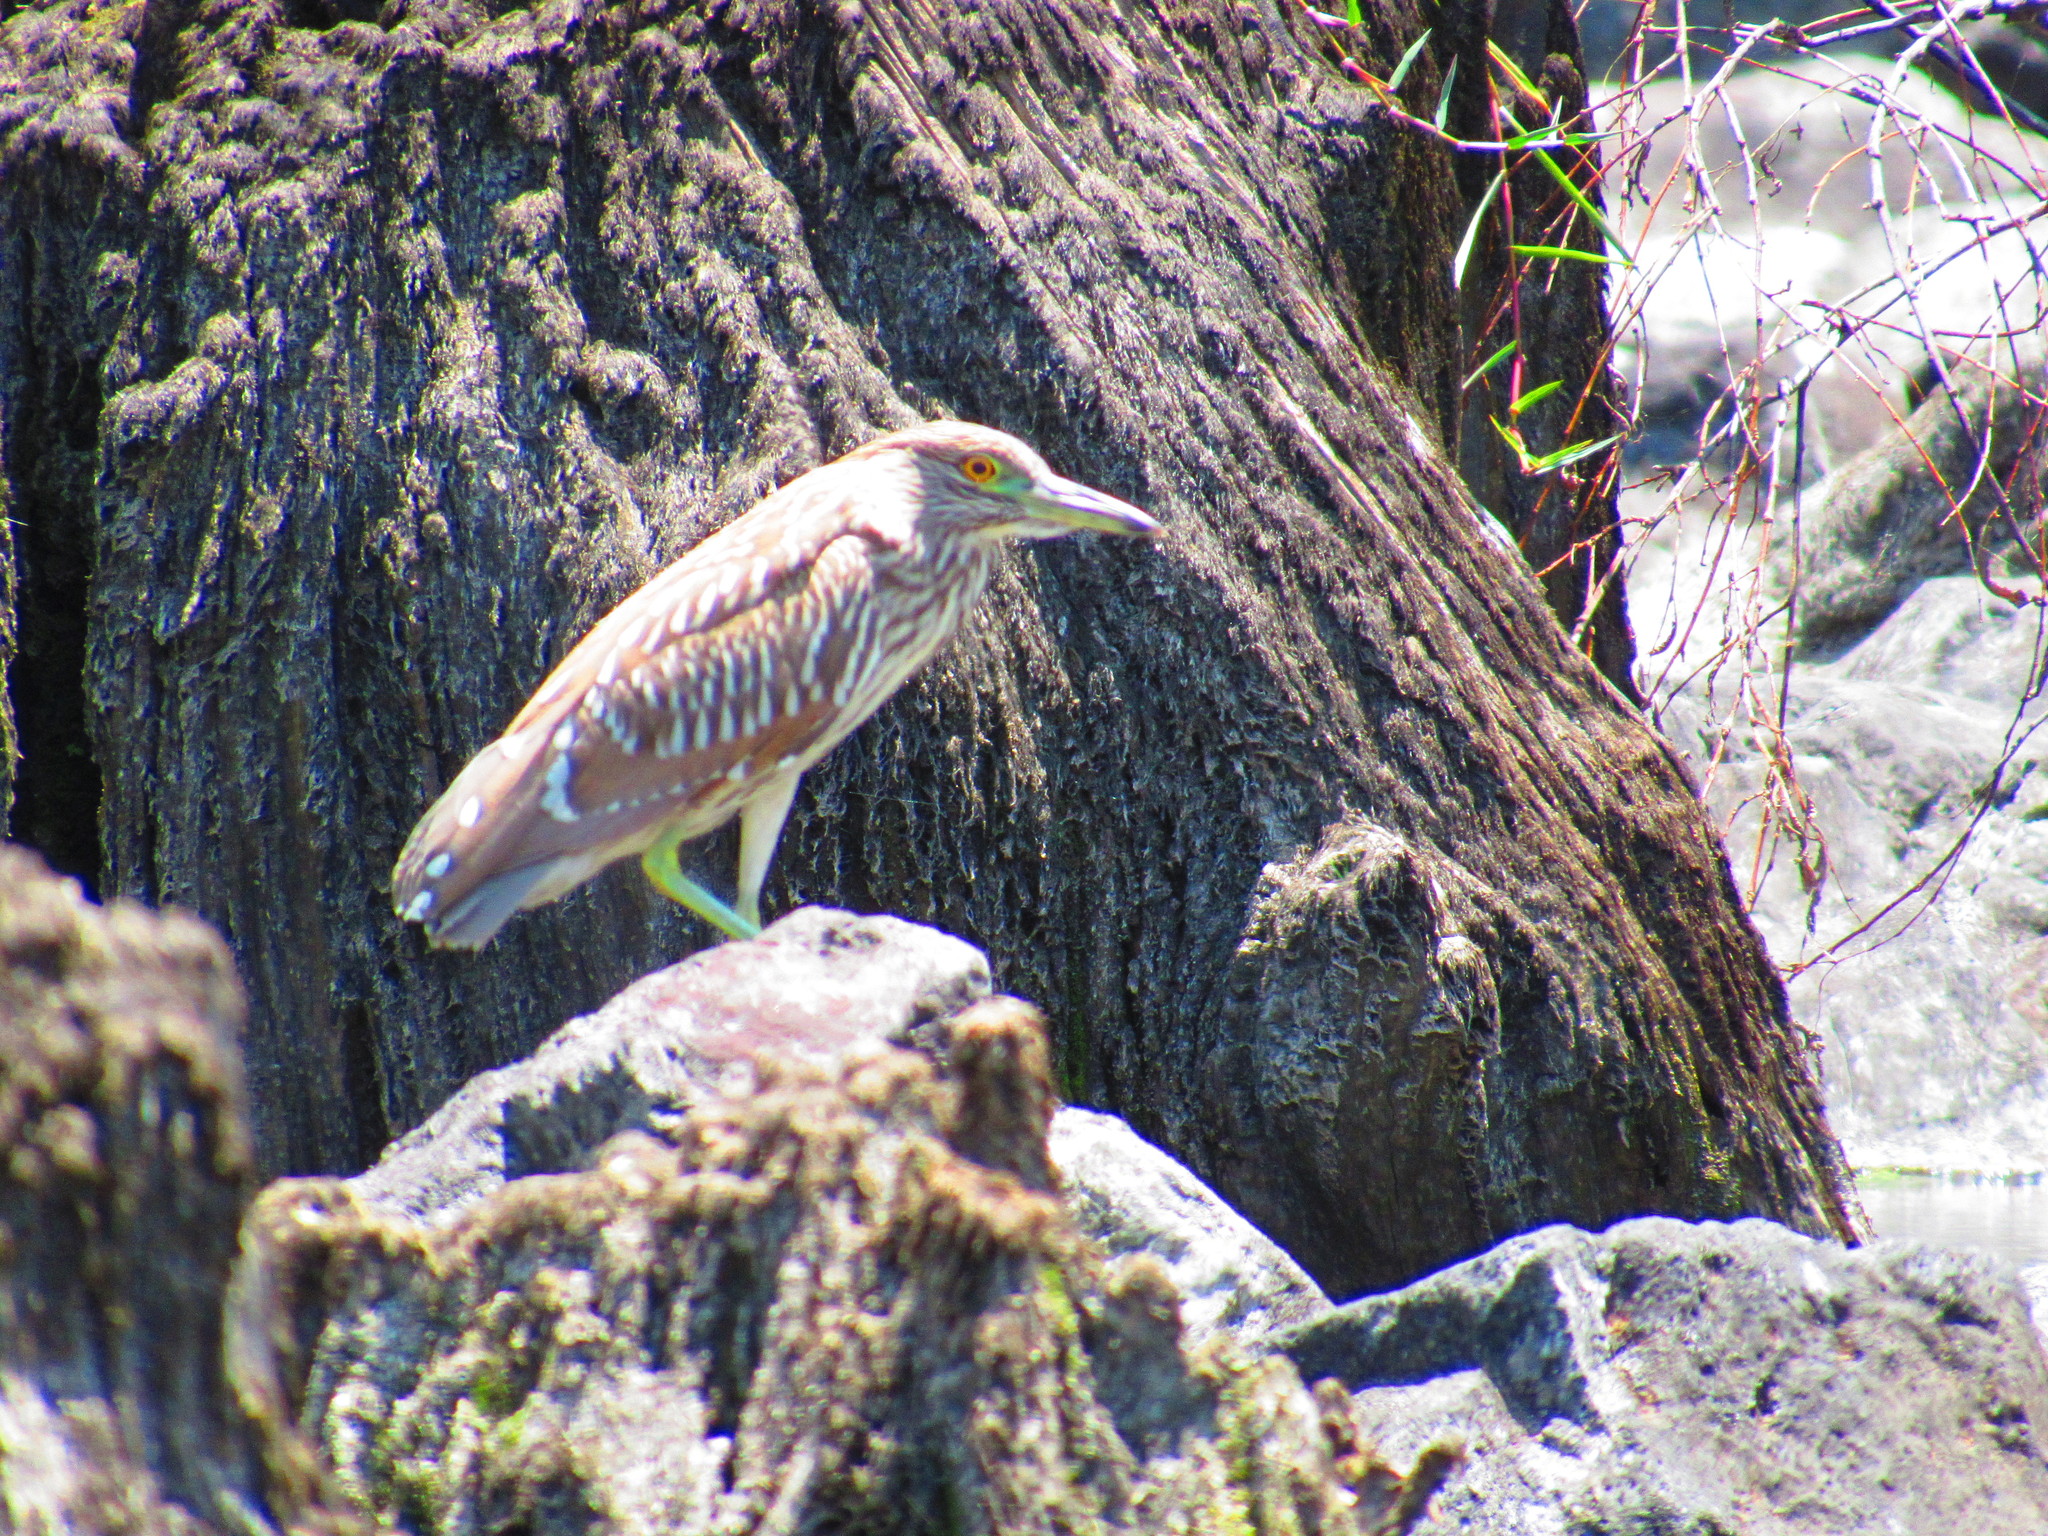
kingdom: Animalia
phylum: Chordata
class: Aves
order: Pelecaniformes
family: Ardeidae
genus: Nycticorax
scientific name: Nycticorax nycticorax
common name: Black-crowned night heron
